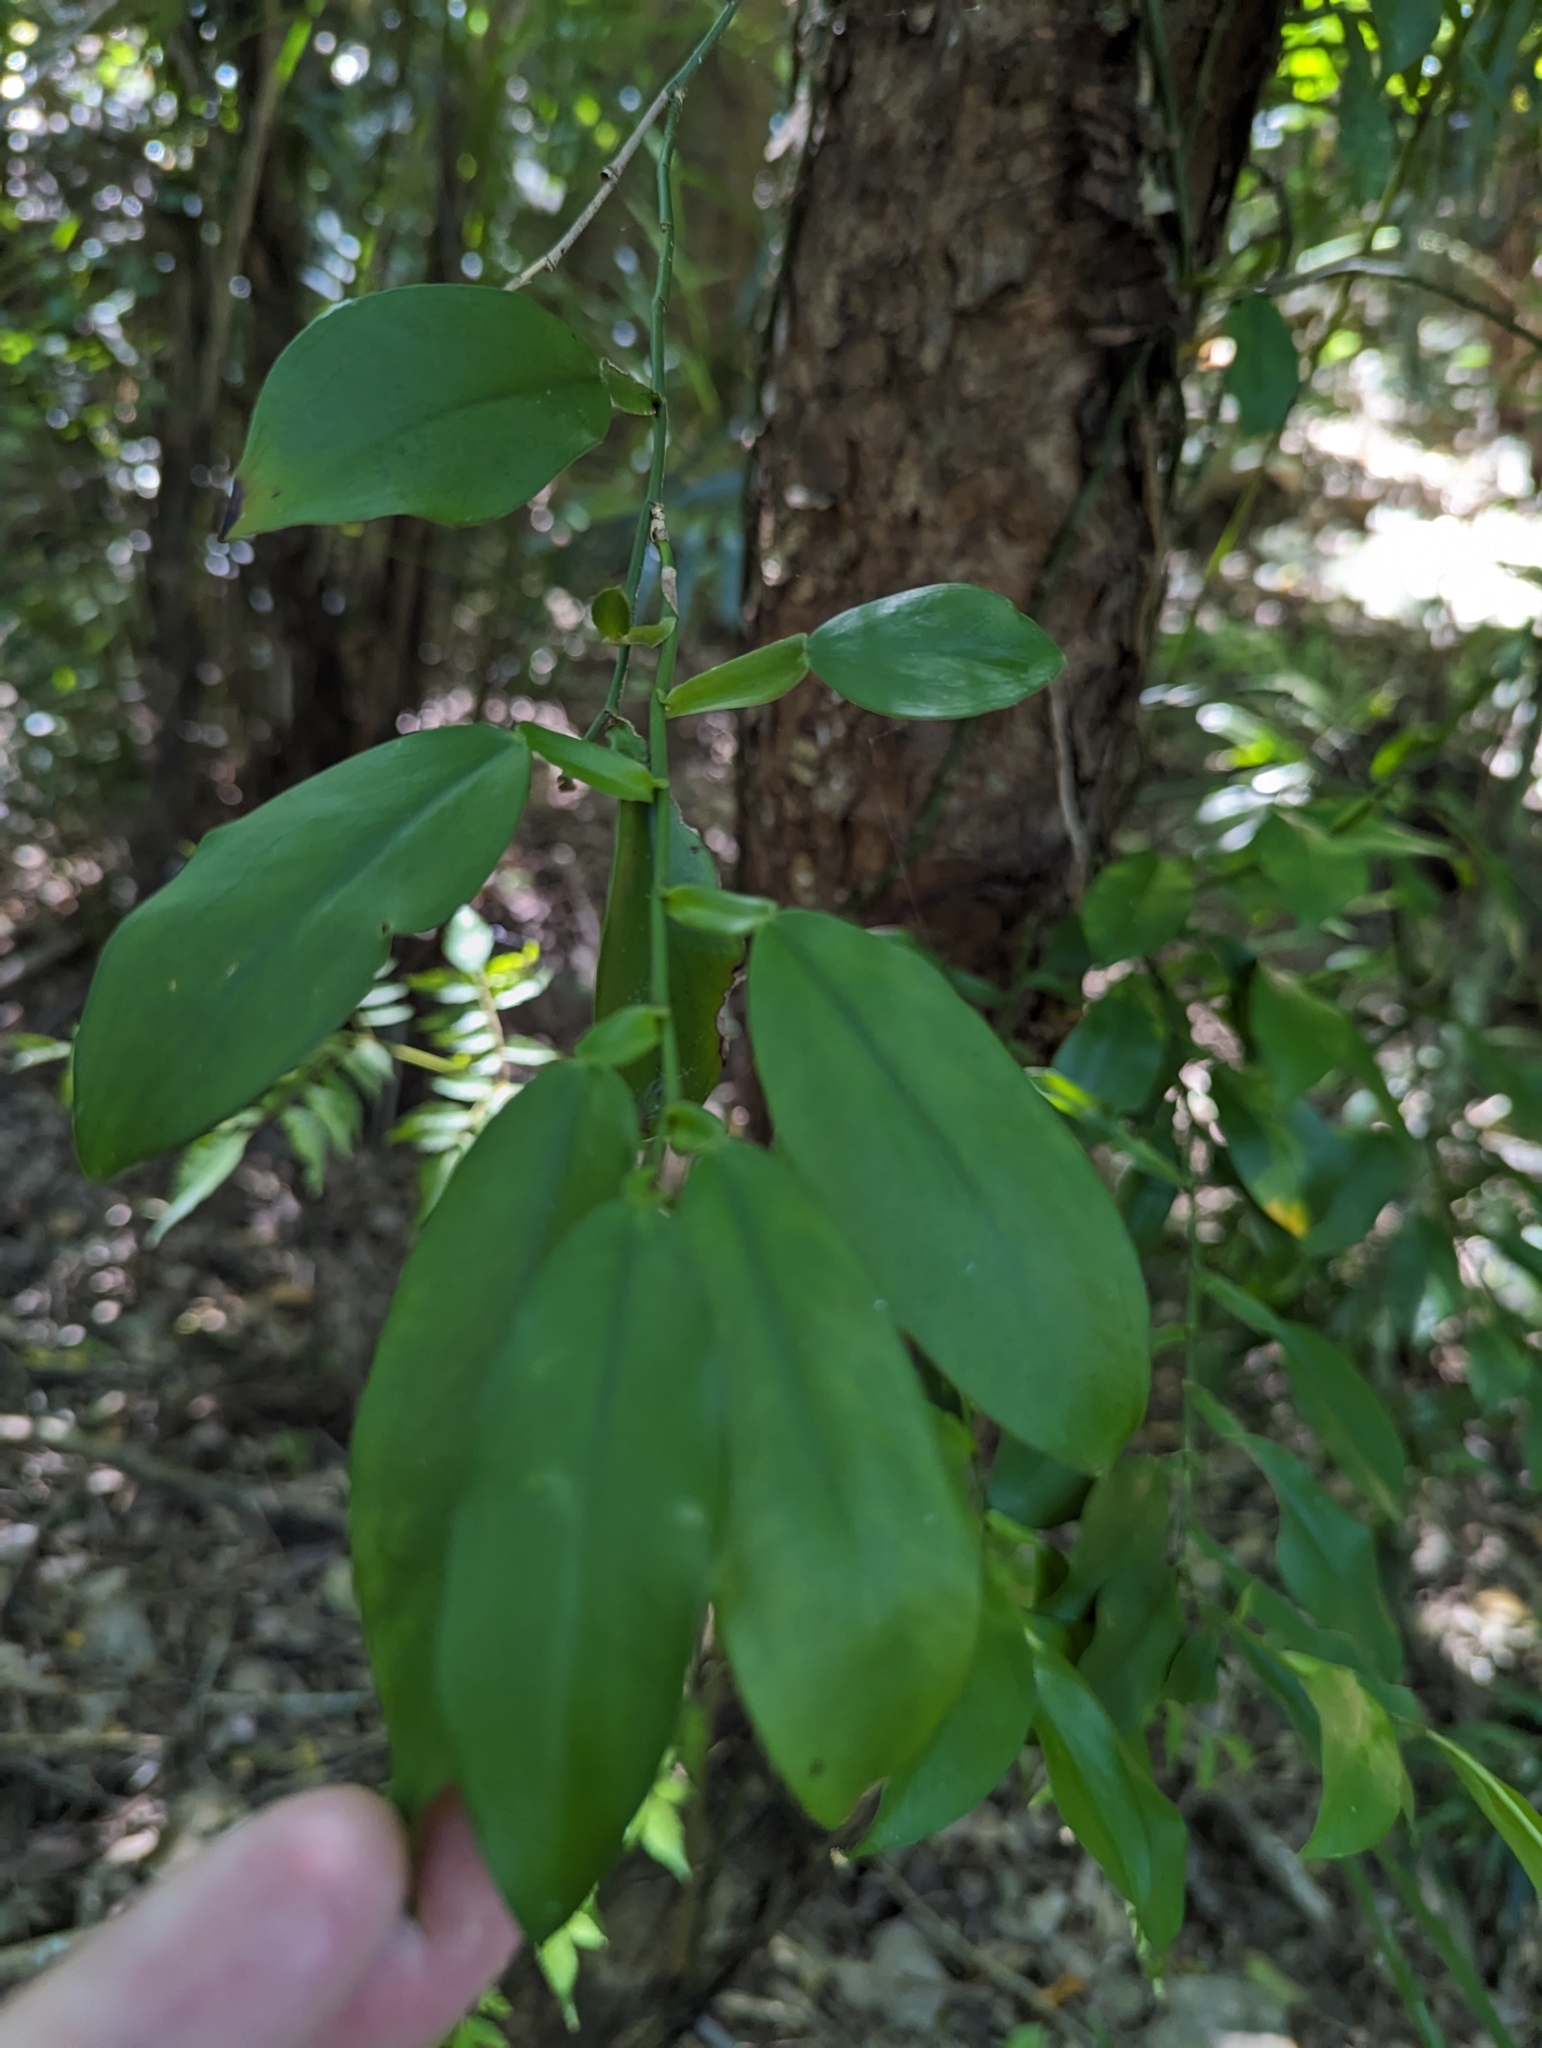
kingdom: Plantae
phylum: Tracheophyta
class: Liliopsida
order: Alismatales
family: Araceae
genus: Pothos
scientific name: Pothos chinensis
